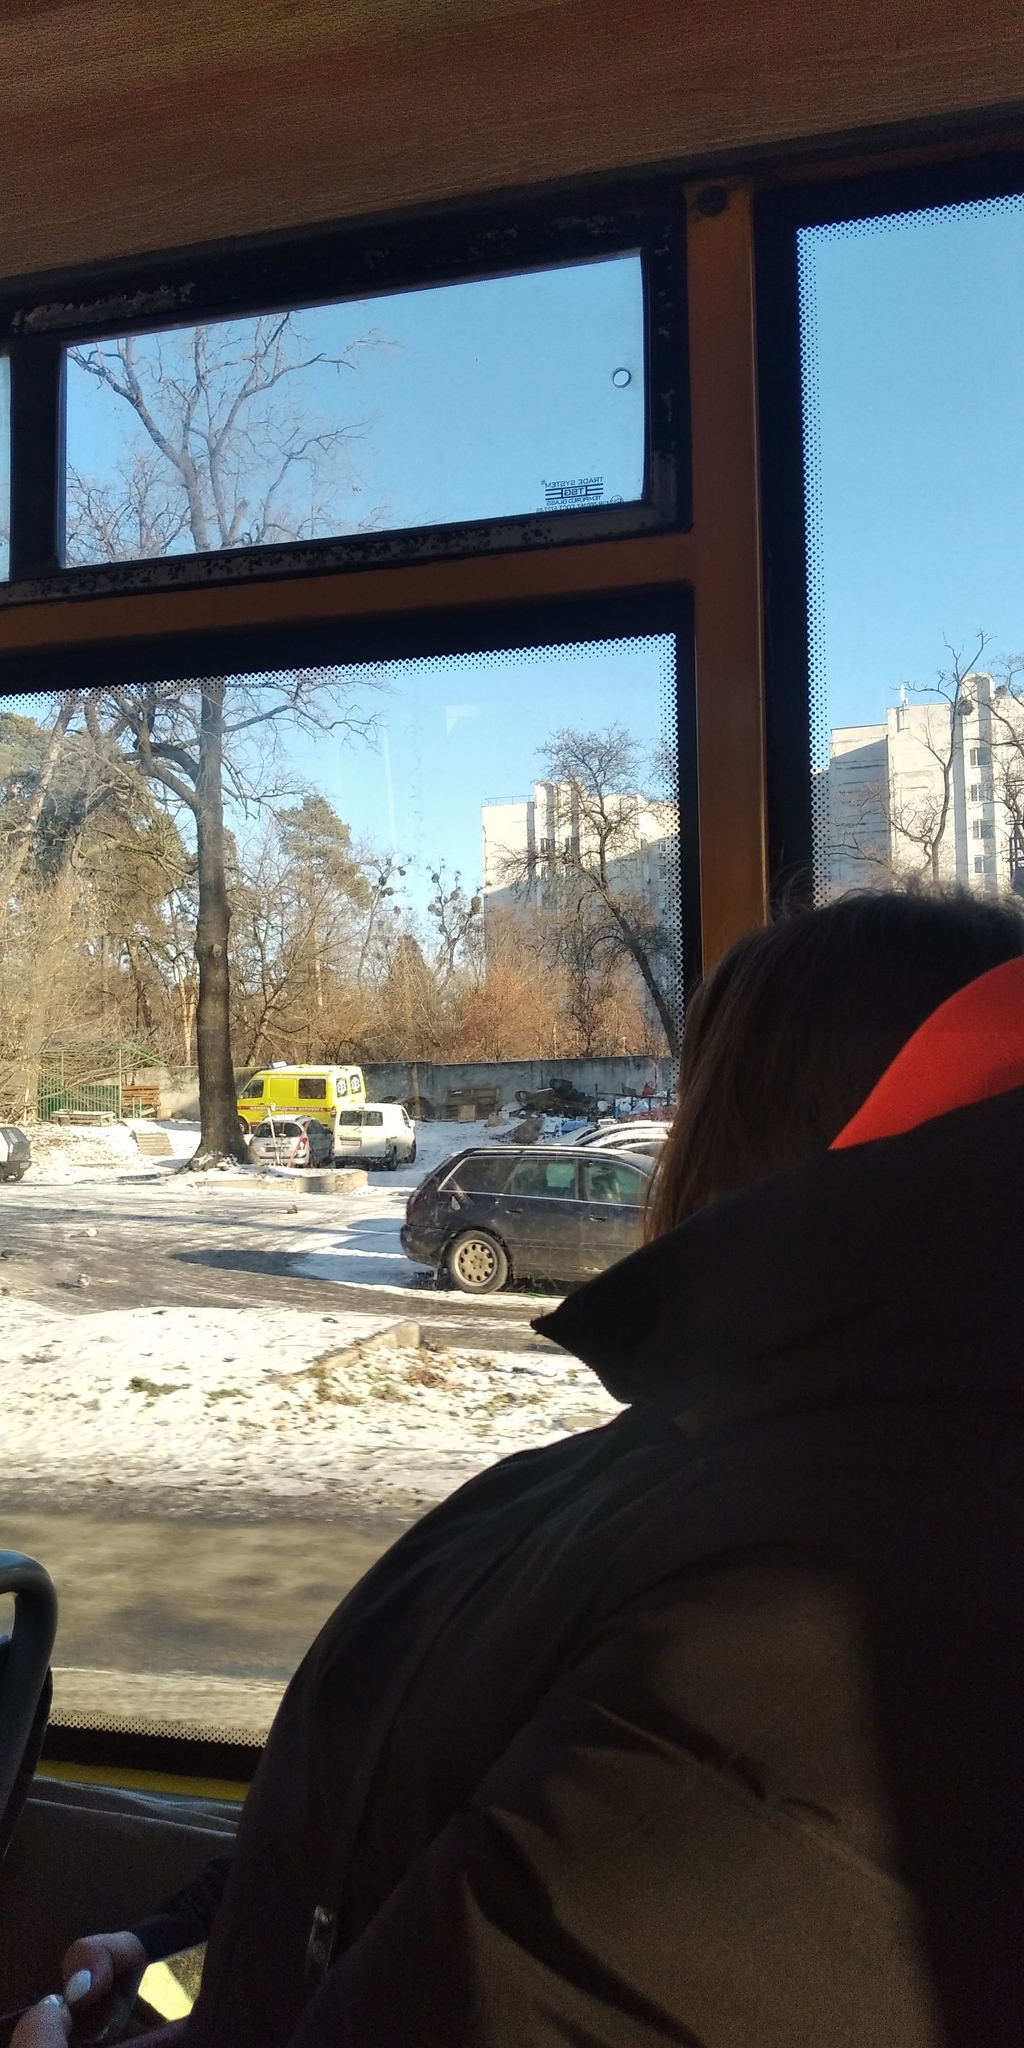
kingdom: Plantae
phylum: Tracheophyta
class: Magnoliopsida
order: Santalales
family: Viscaceae
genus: Viscum
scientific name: Viscum album
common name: Mistletoe
